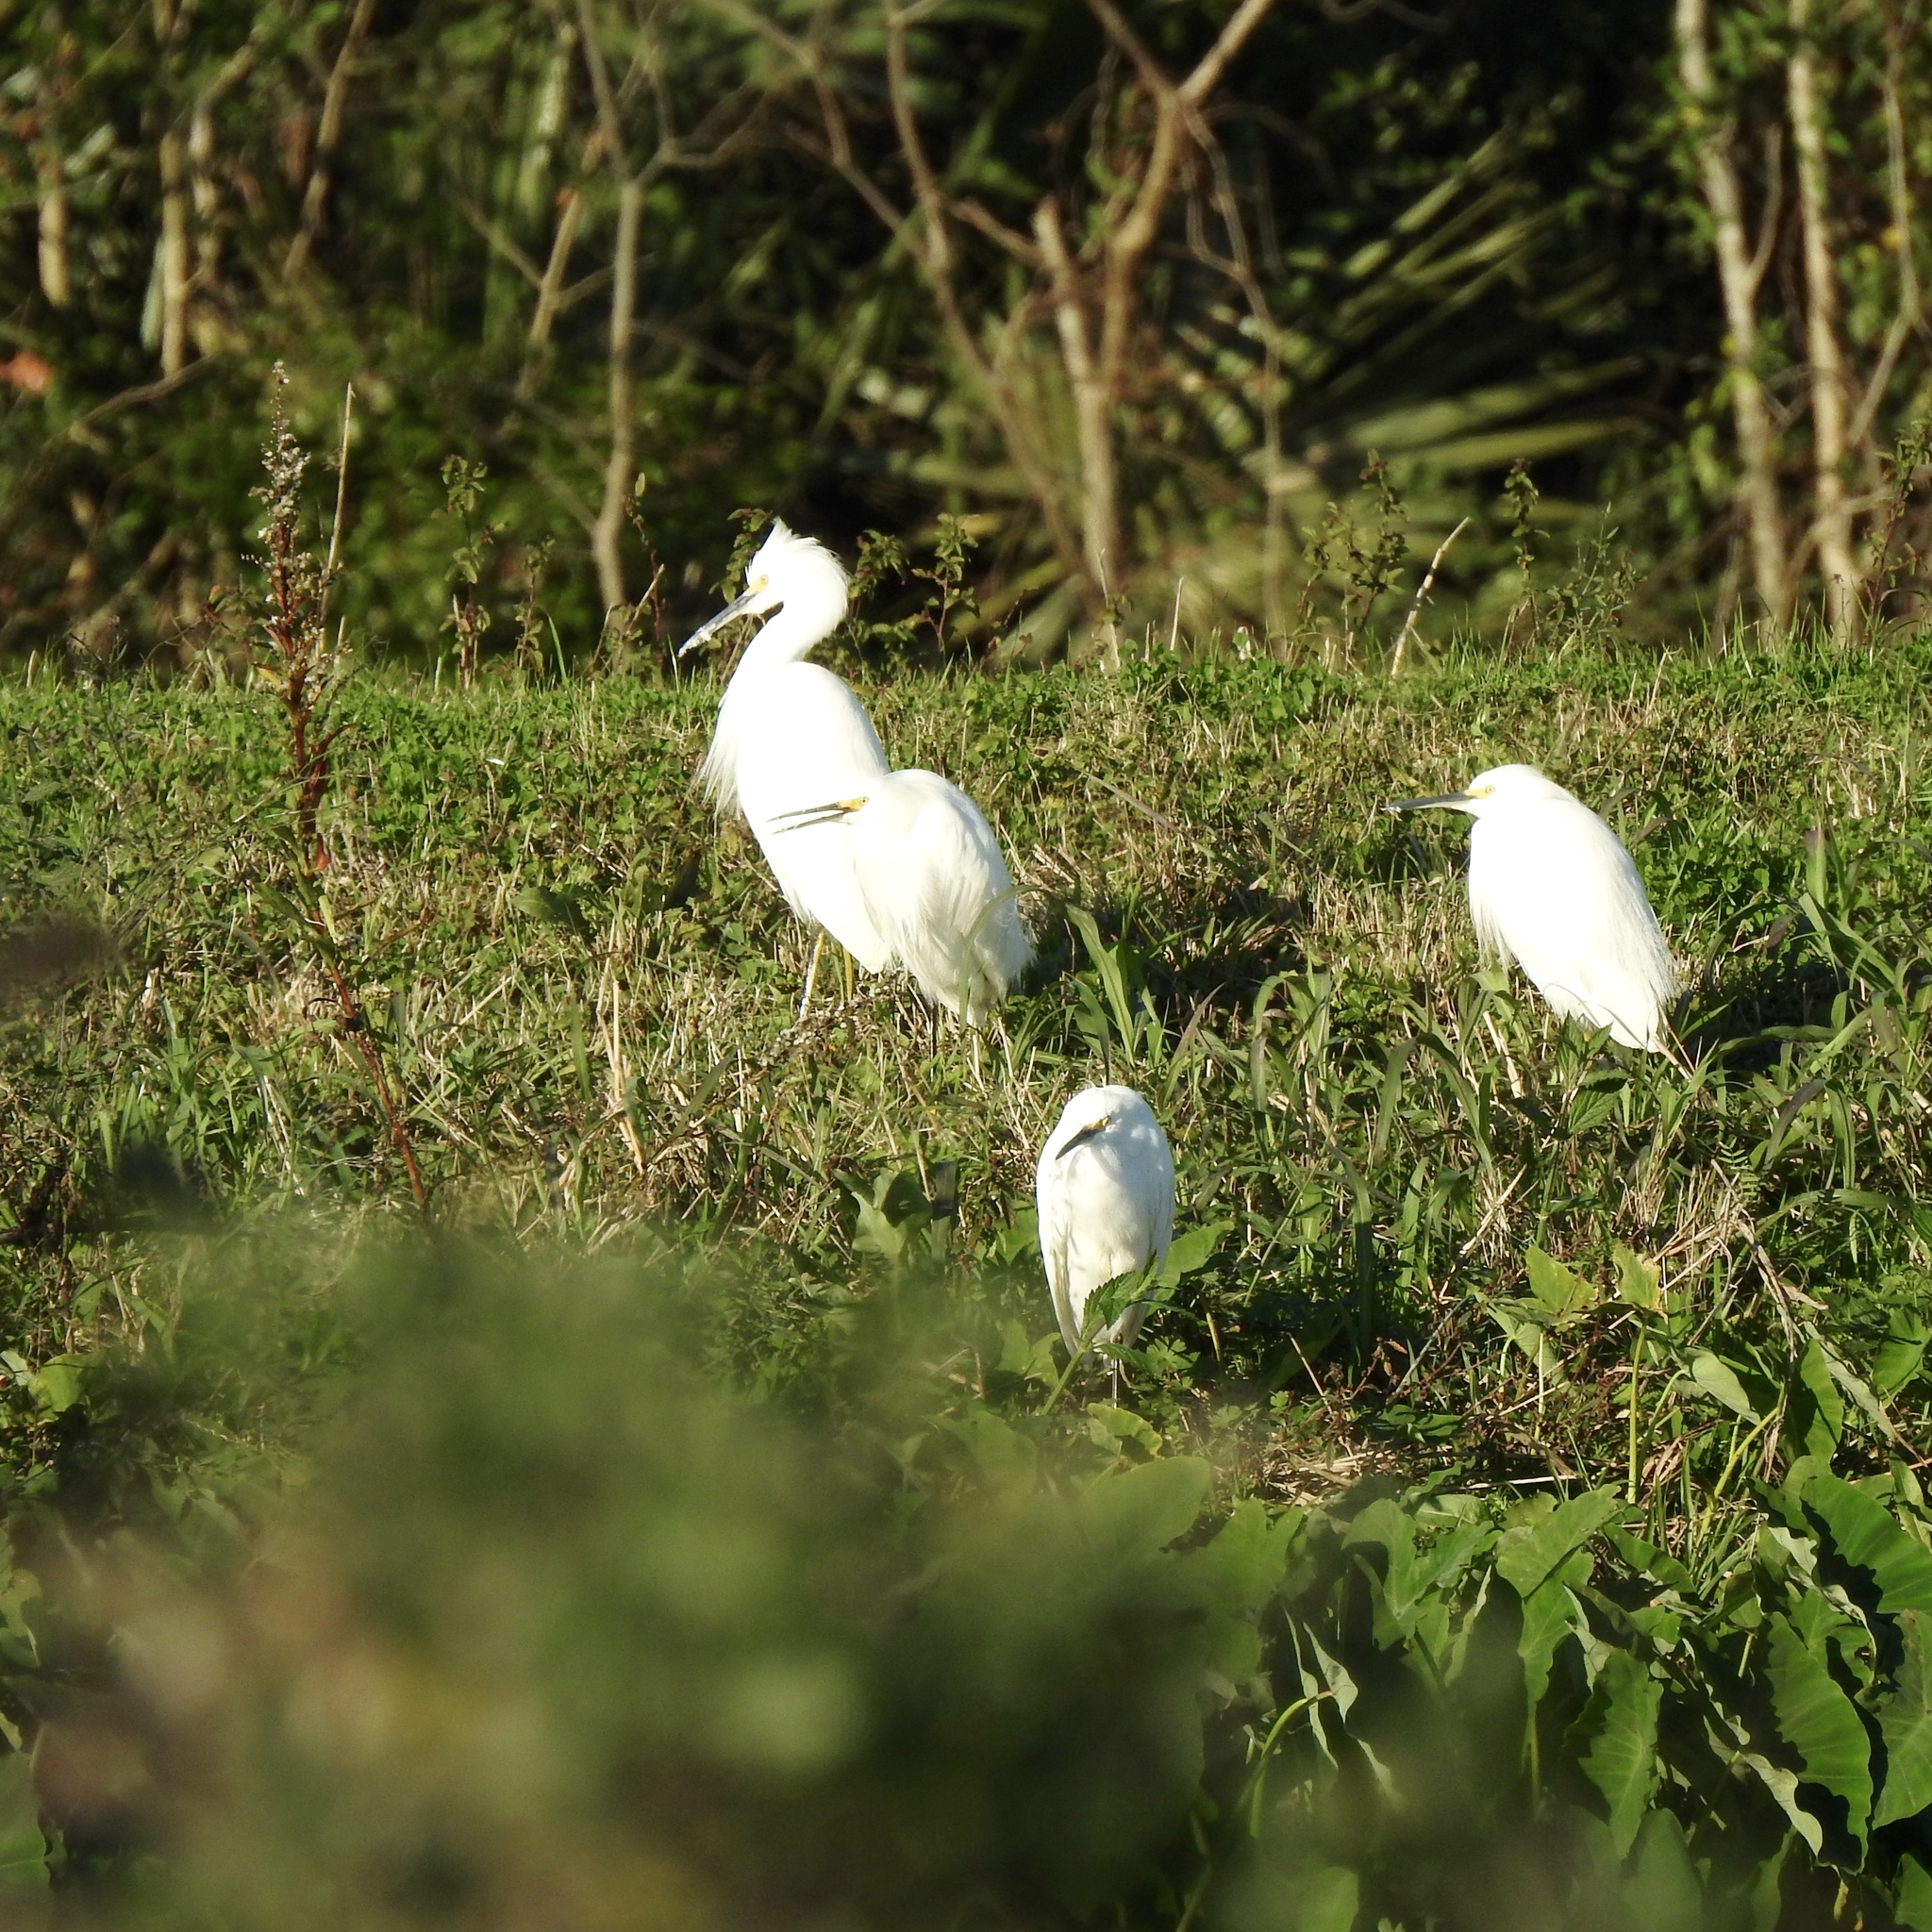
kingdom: Animalia
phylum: Chordata
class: Aves
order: Pelecaniformes
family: Ardeidae
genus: Egretta
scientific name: Egretta thula
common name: Snowy egret
